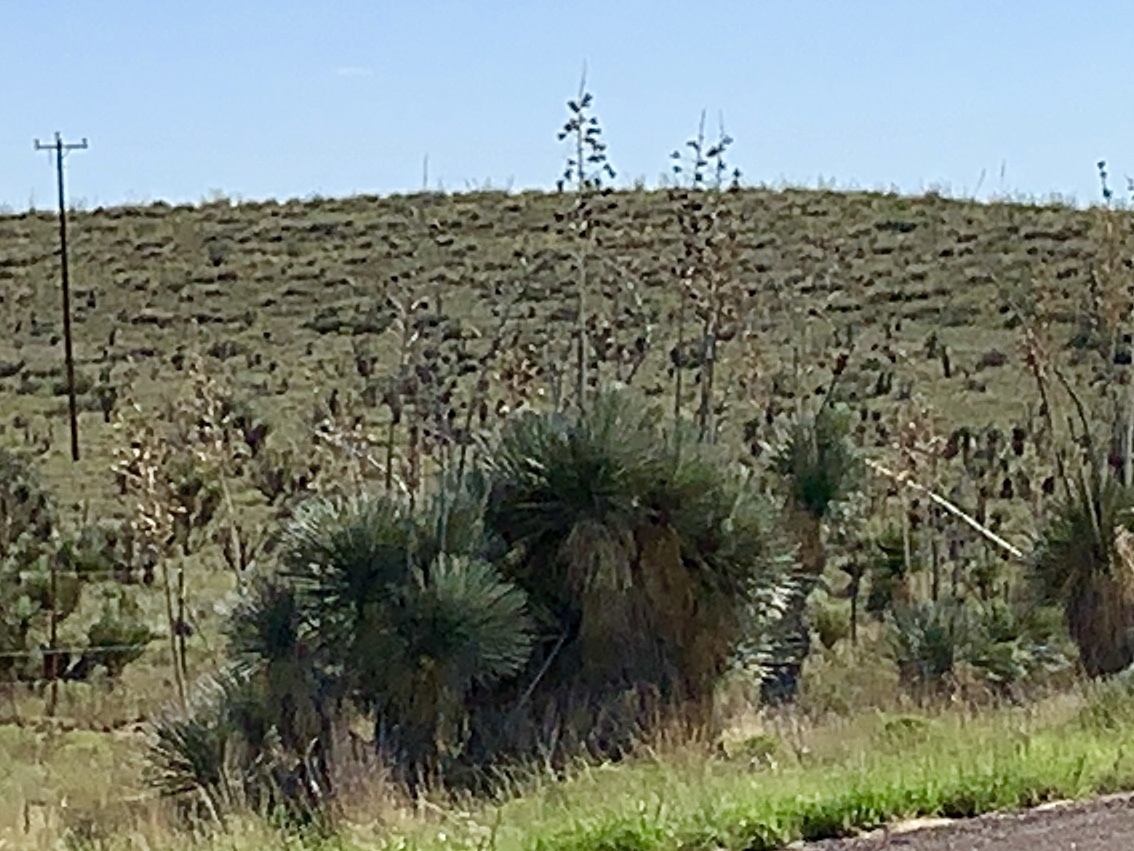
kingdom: Plantae
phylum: Tracheophyta
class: Liliopsida
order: Asparagales
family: Asparagaceae
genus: Yucca
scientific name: Yucca elata
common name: Palmella
